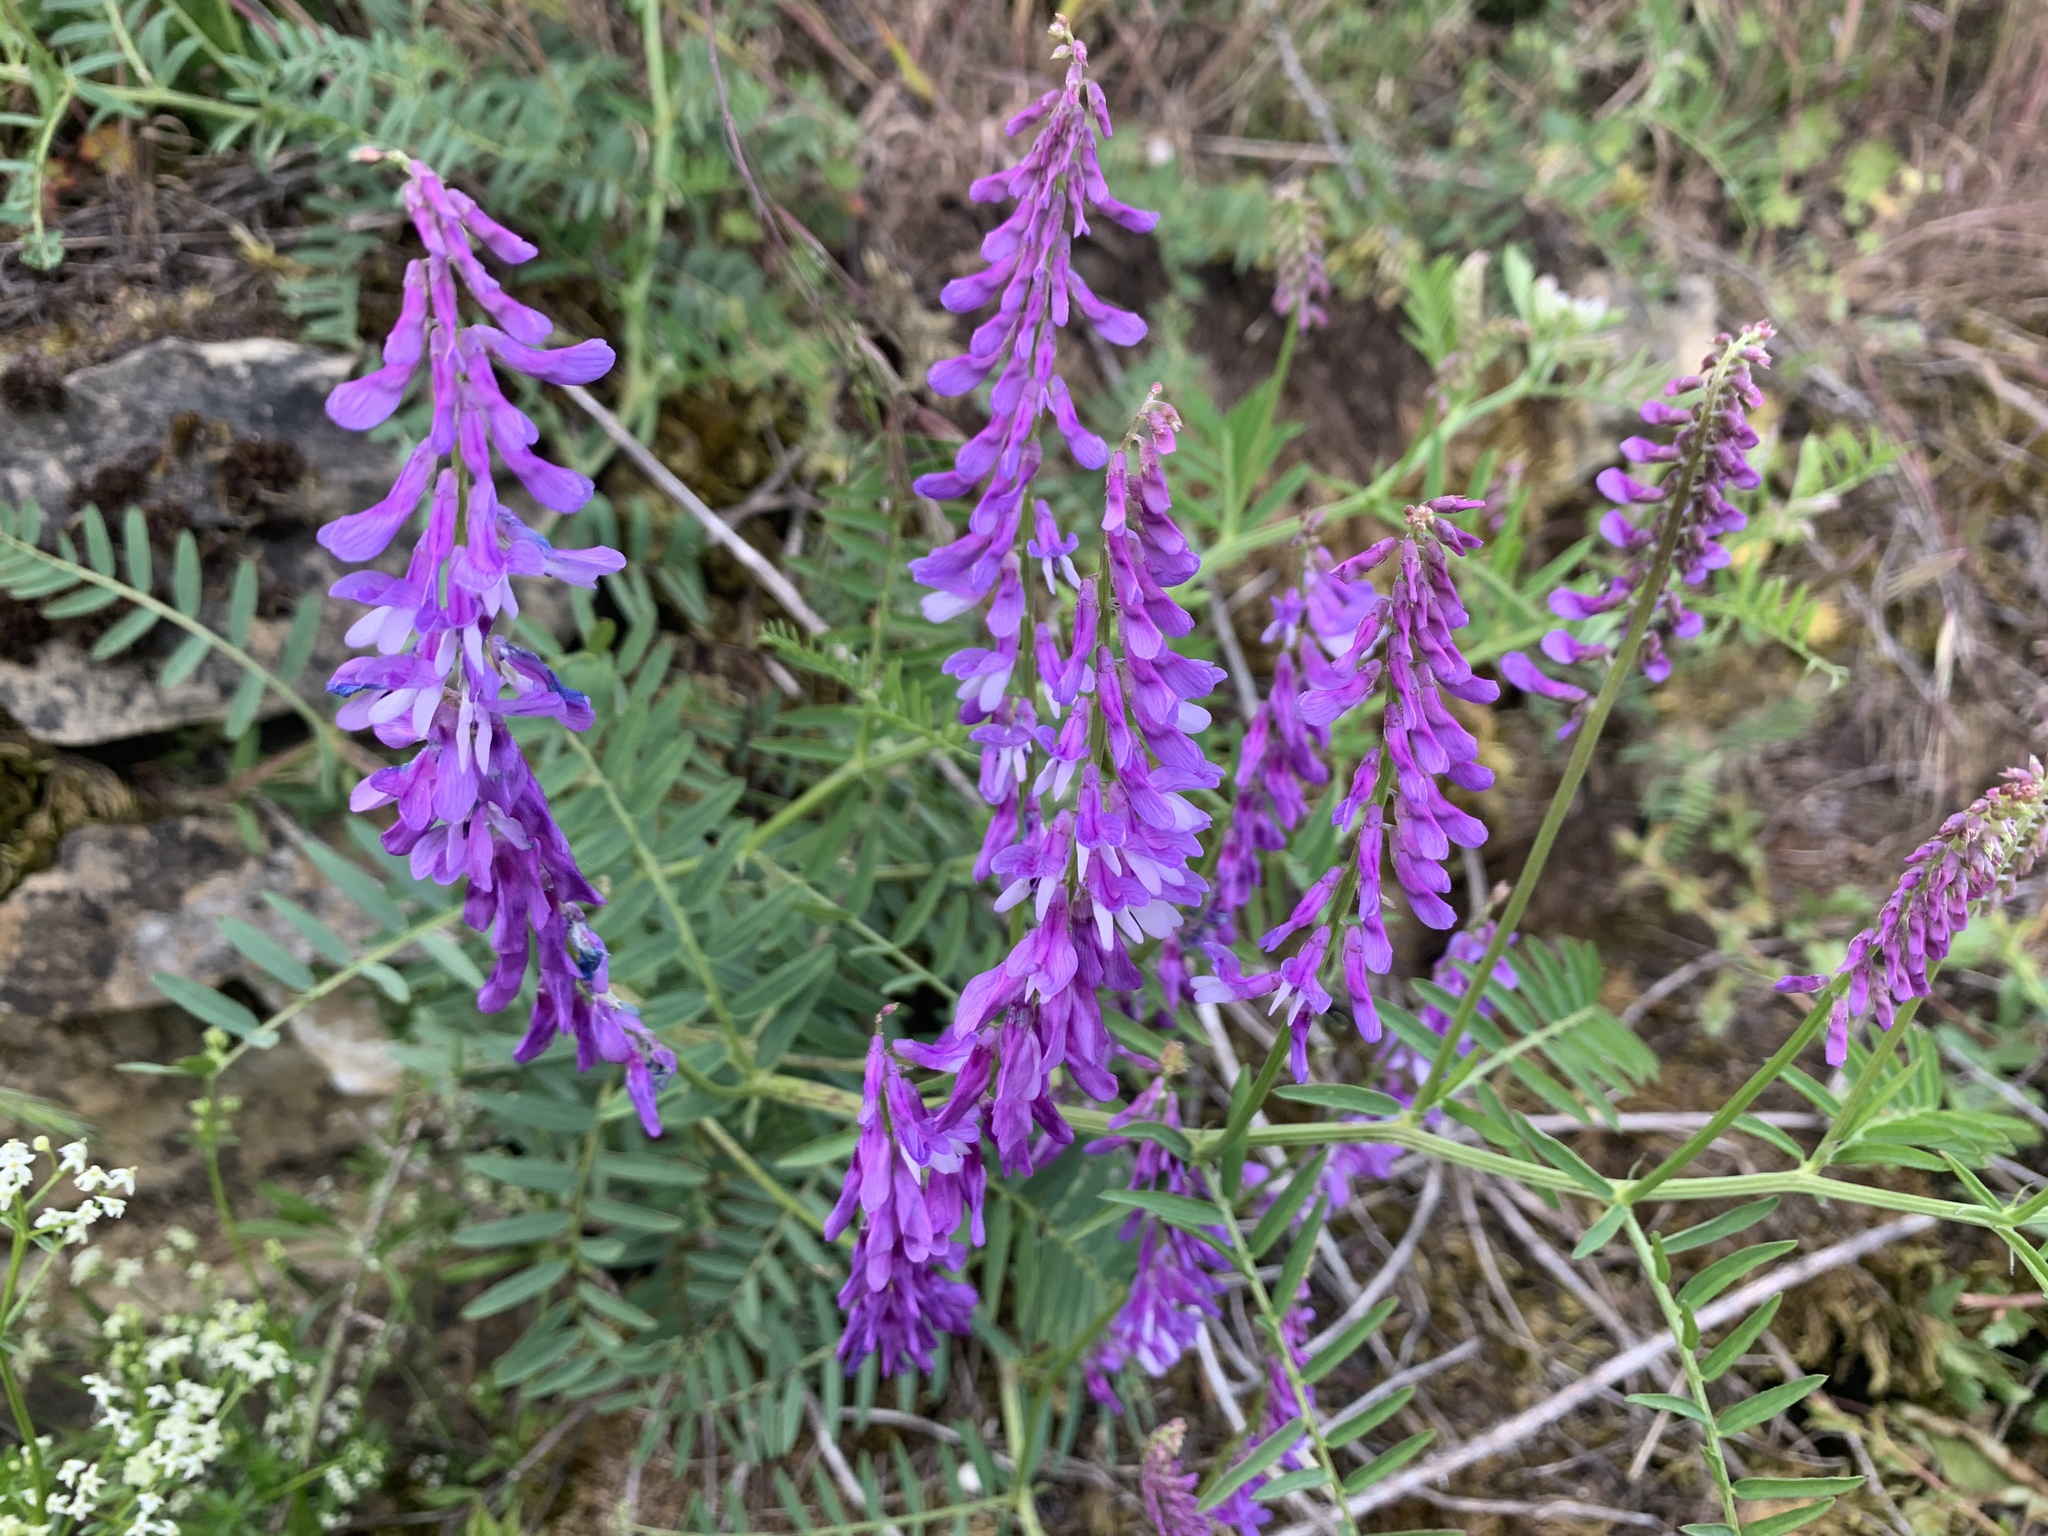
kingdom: Plantae
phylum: Tracheophyta
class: Magnoliopsida
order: Fabales
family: Fabaceae
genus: Vicia
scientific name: Vicia cracca
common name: Bird vetch
